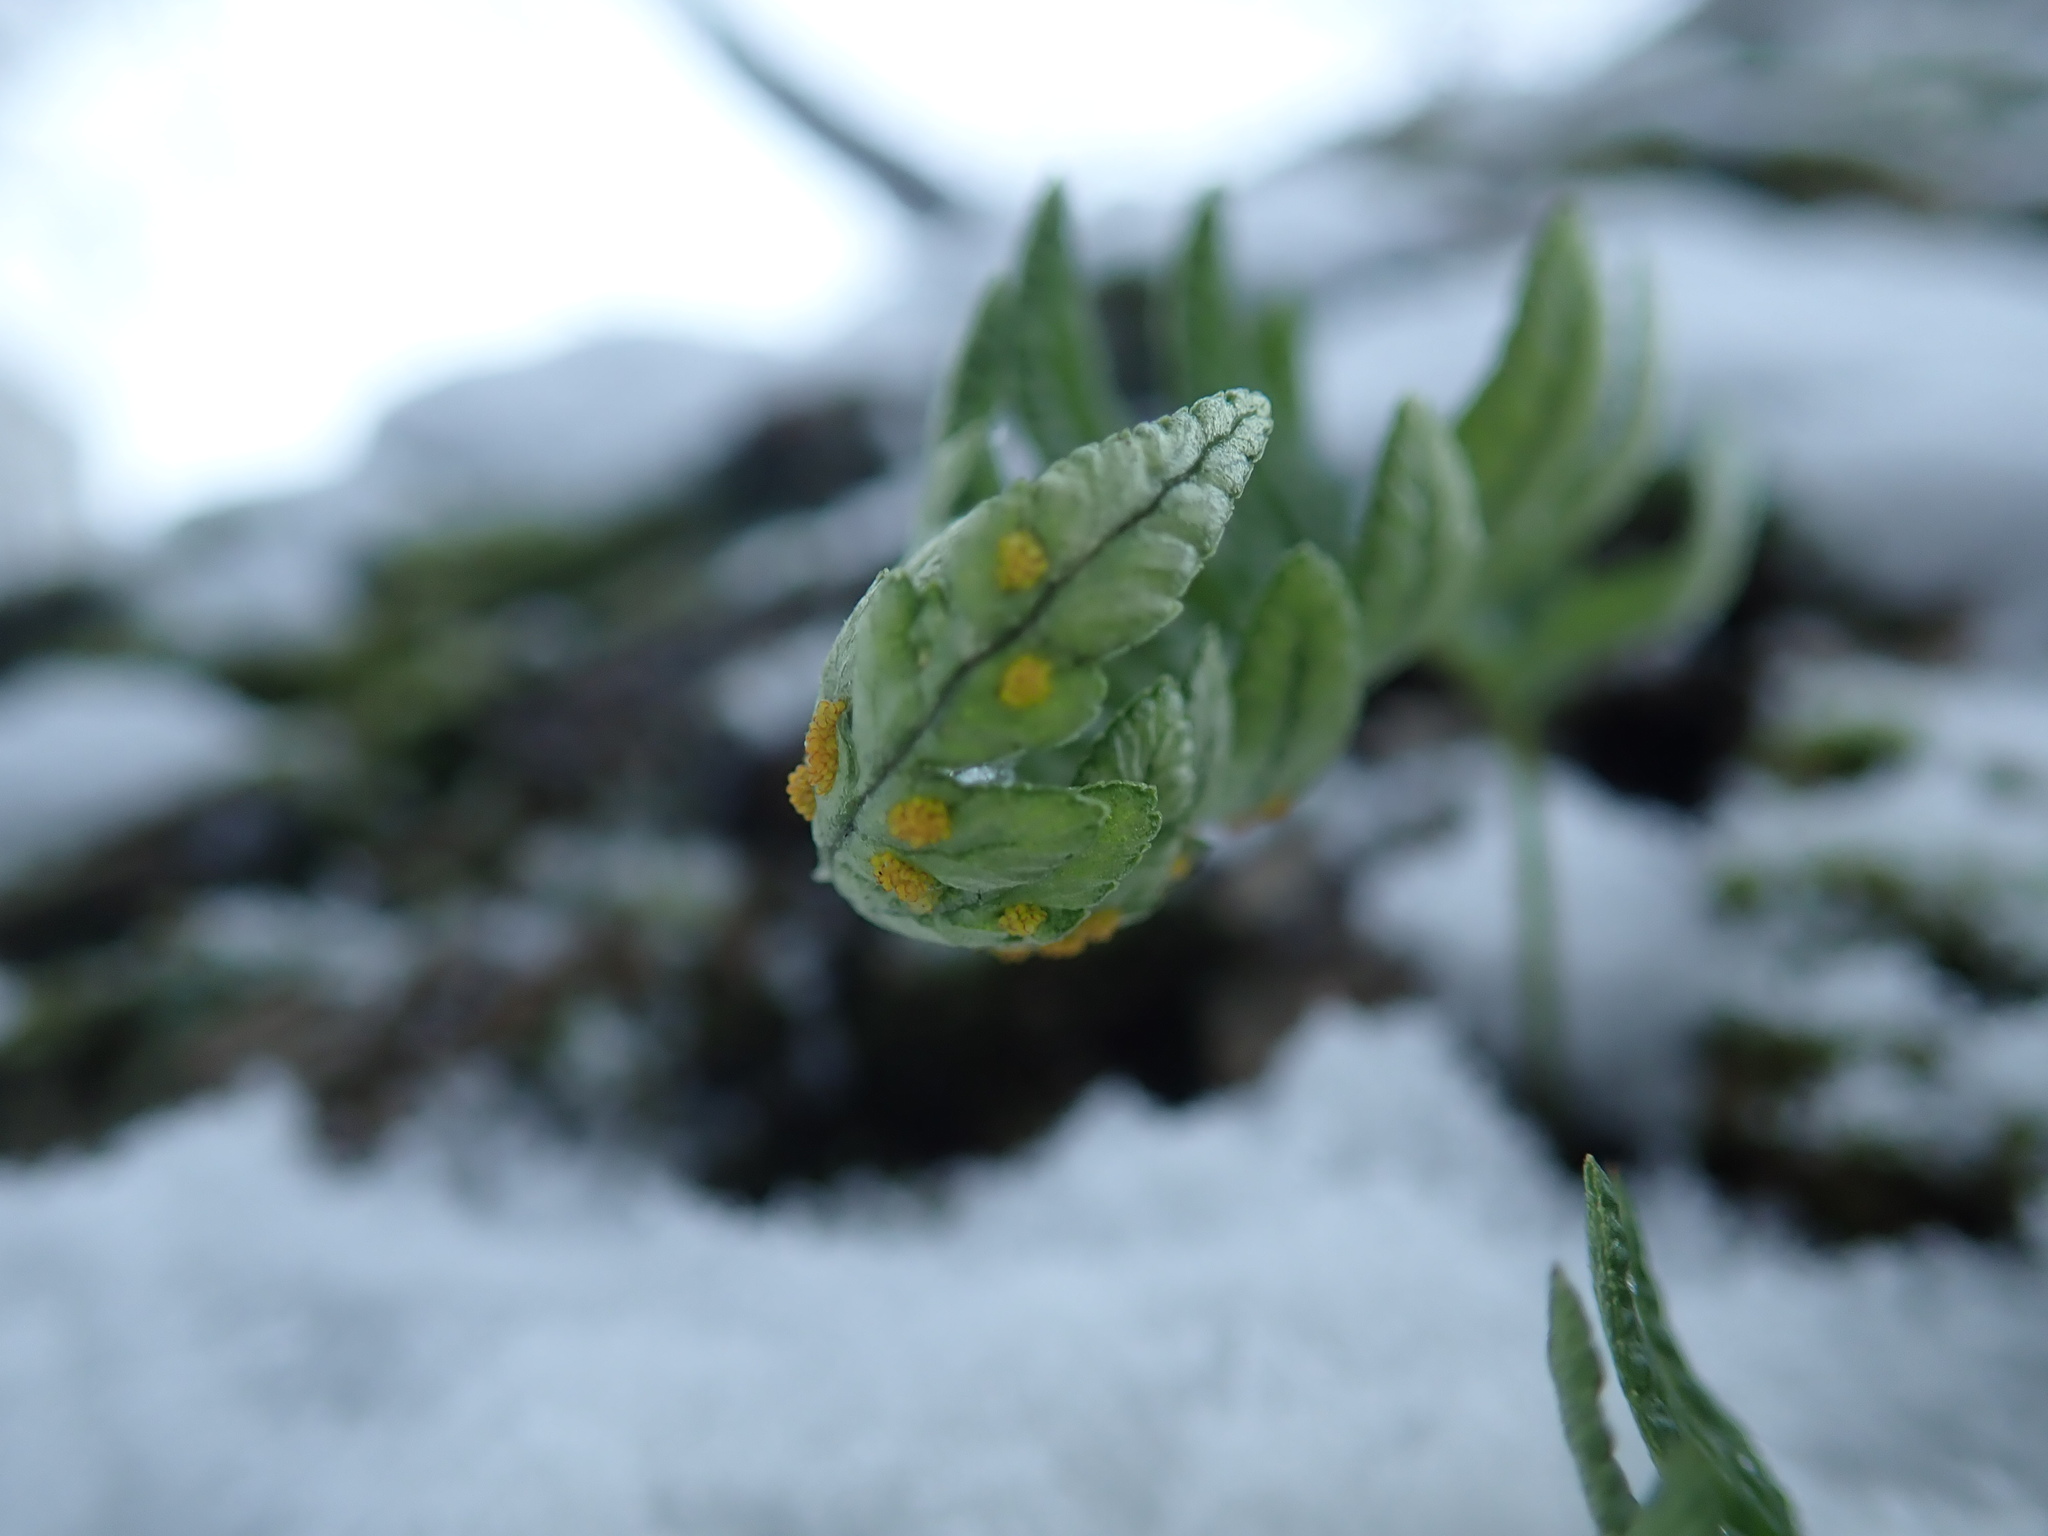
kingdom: Plantae
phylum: Tracheophyta
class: Polypodiopsida
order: Polypodiales
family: Polypodiaceae
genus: Polypodium
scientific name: Polypodium glycyrrhiza
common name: Licorice fern
